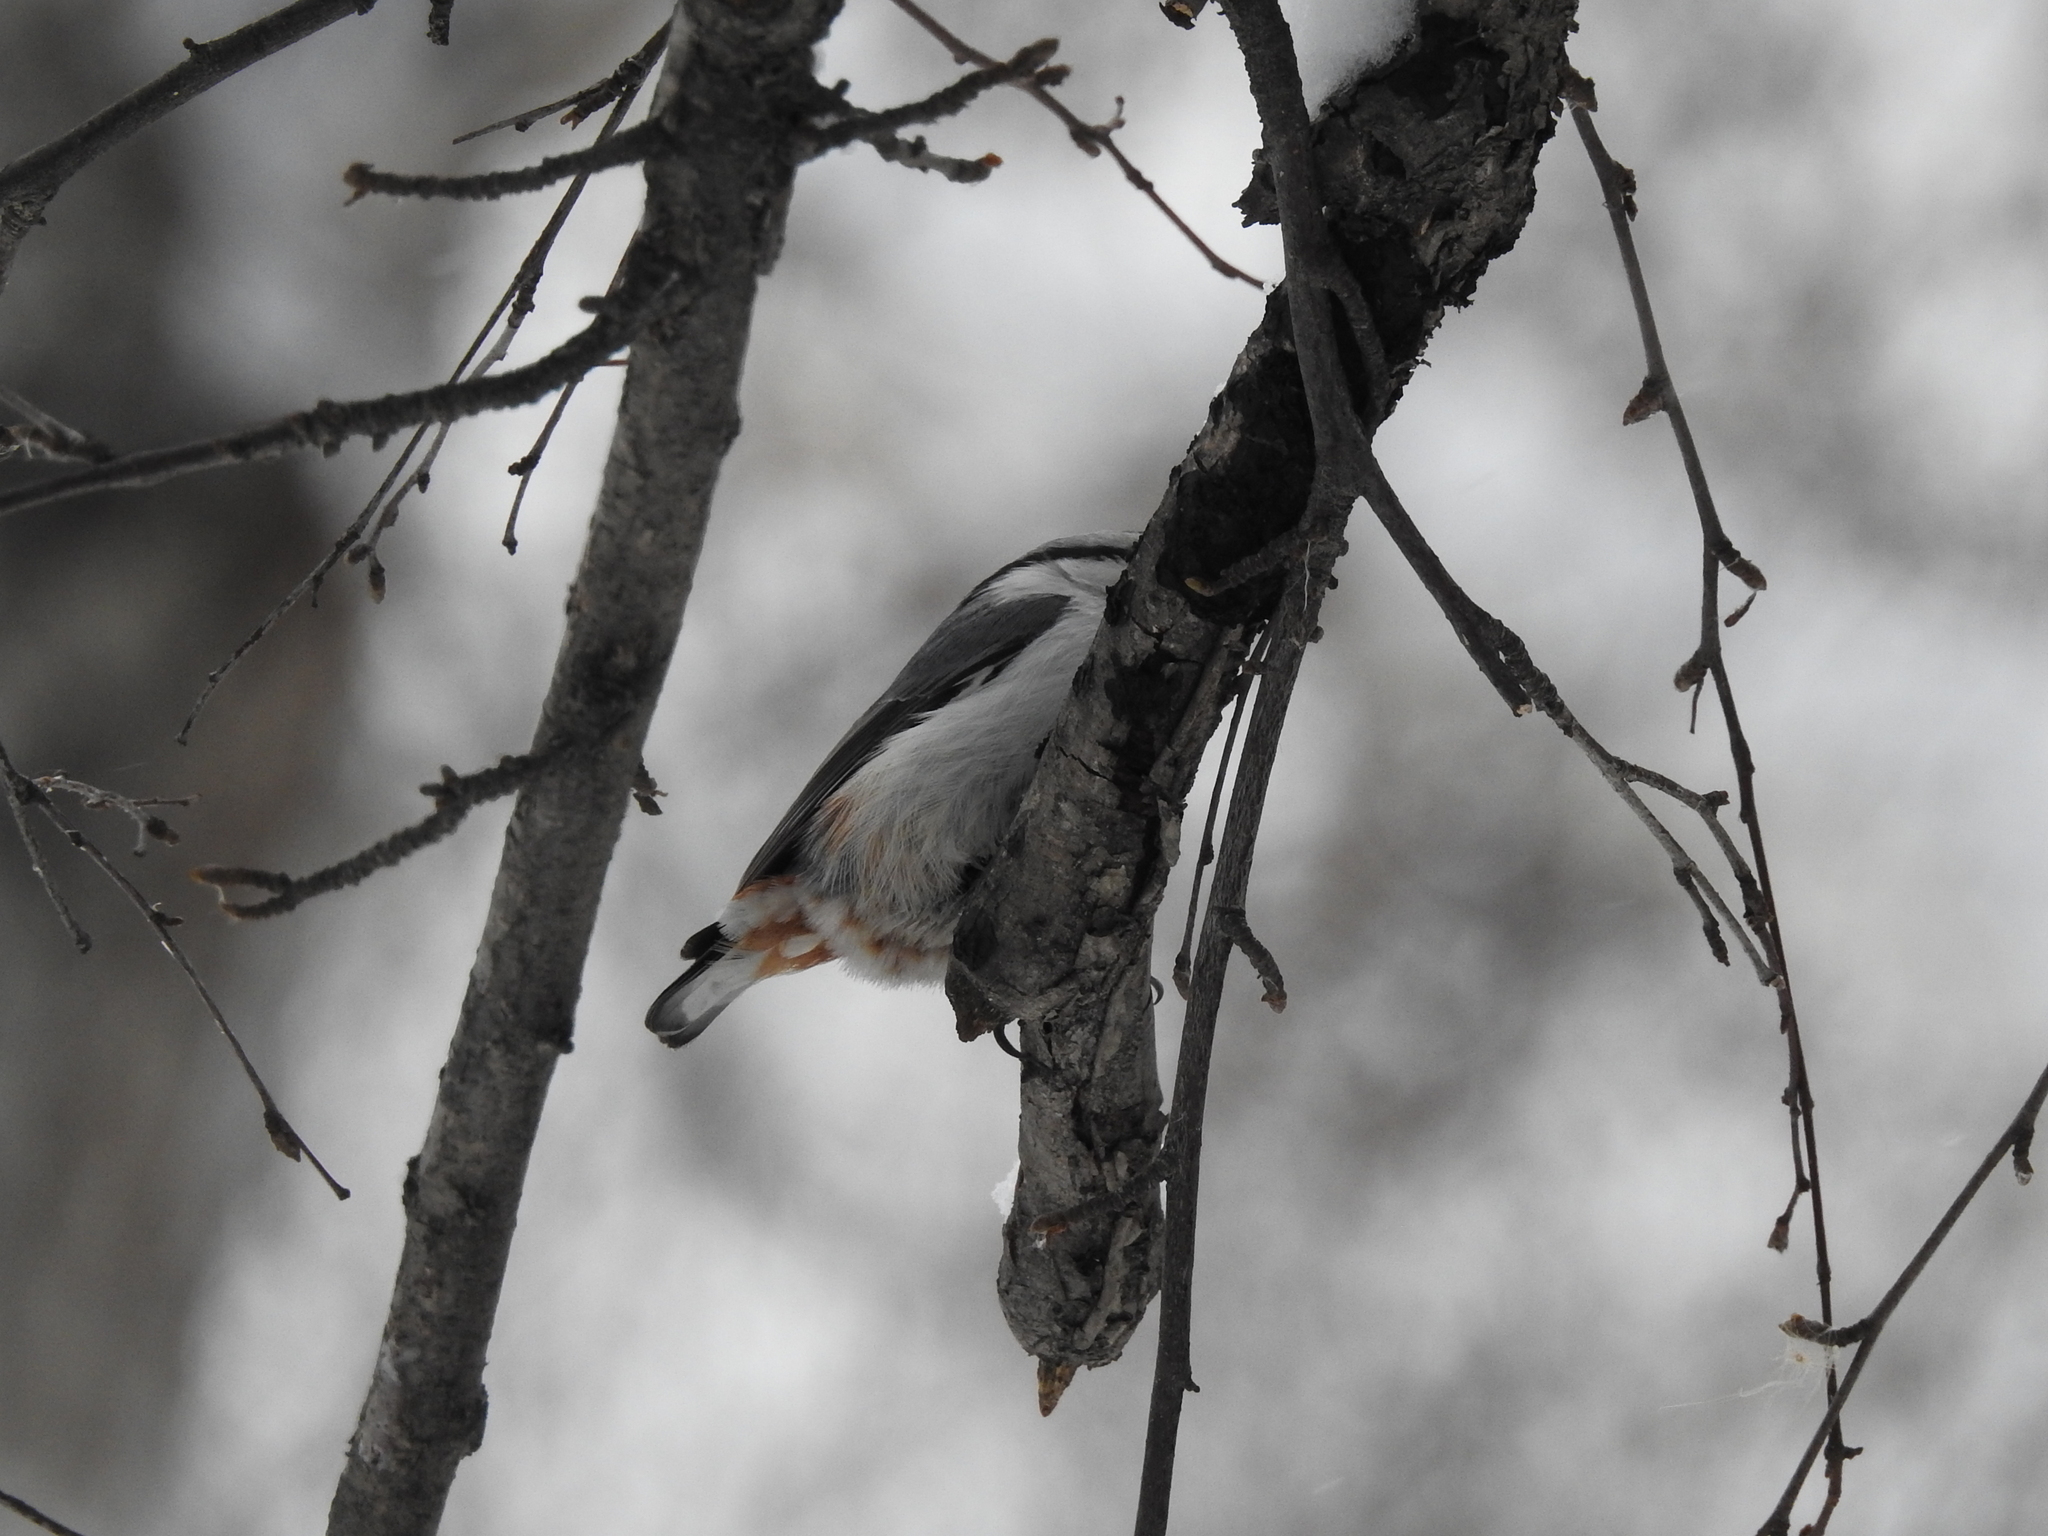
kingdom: Animalia
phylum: Chordata
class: Aves
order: Passeriformes
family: Sittidae
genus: Sitta
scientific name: Sitta europaea
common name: Eurasian nuthatch
